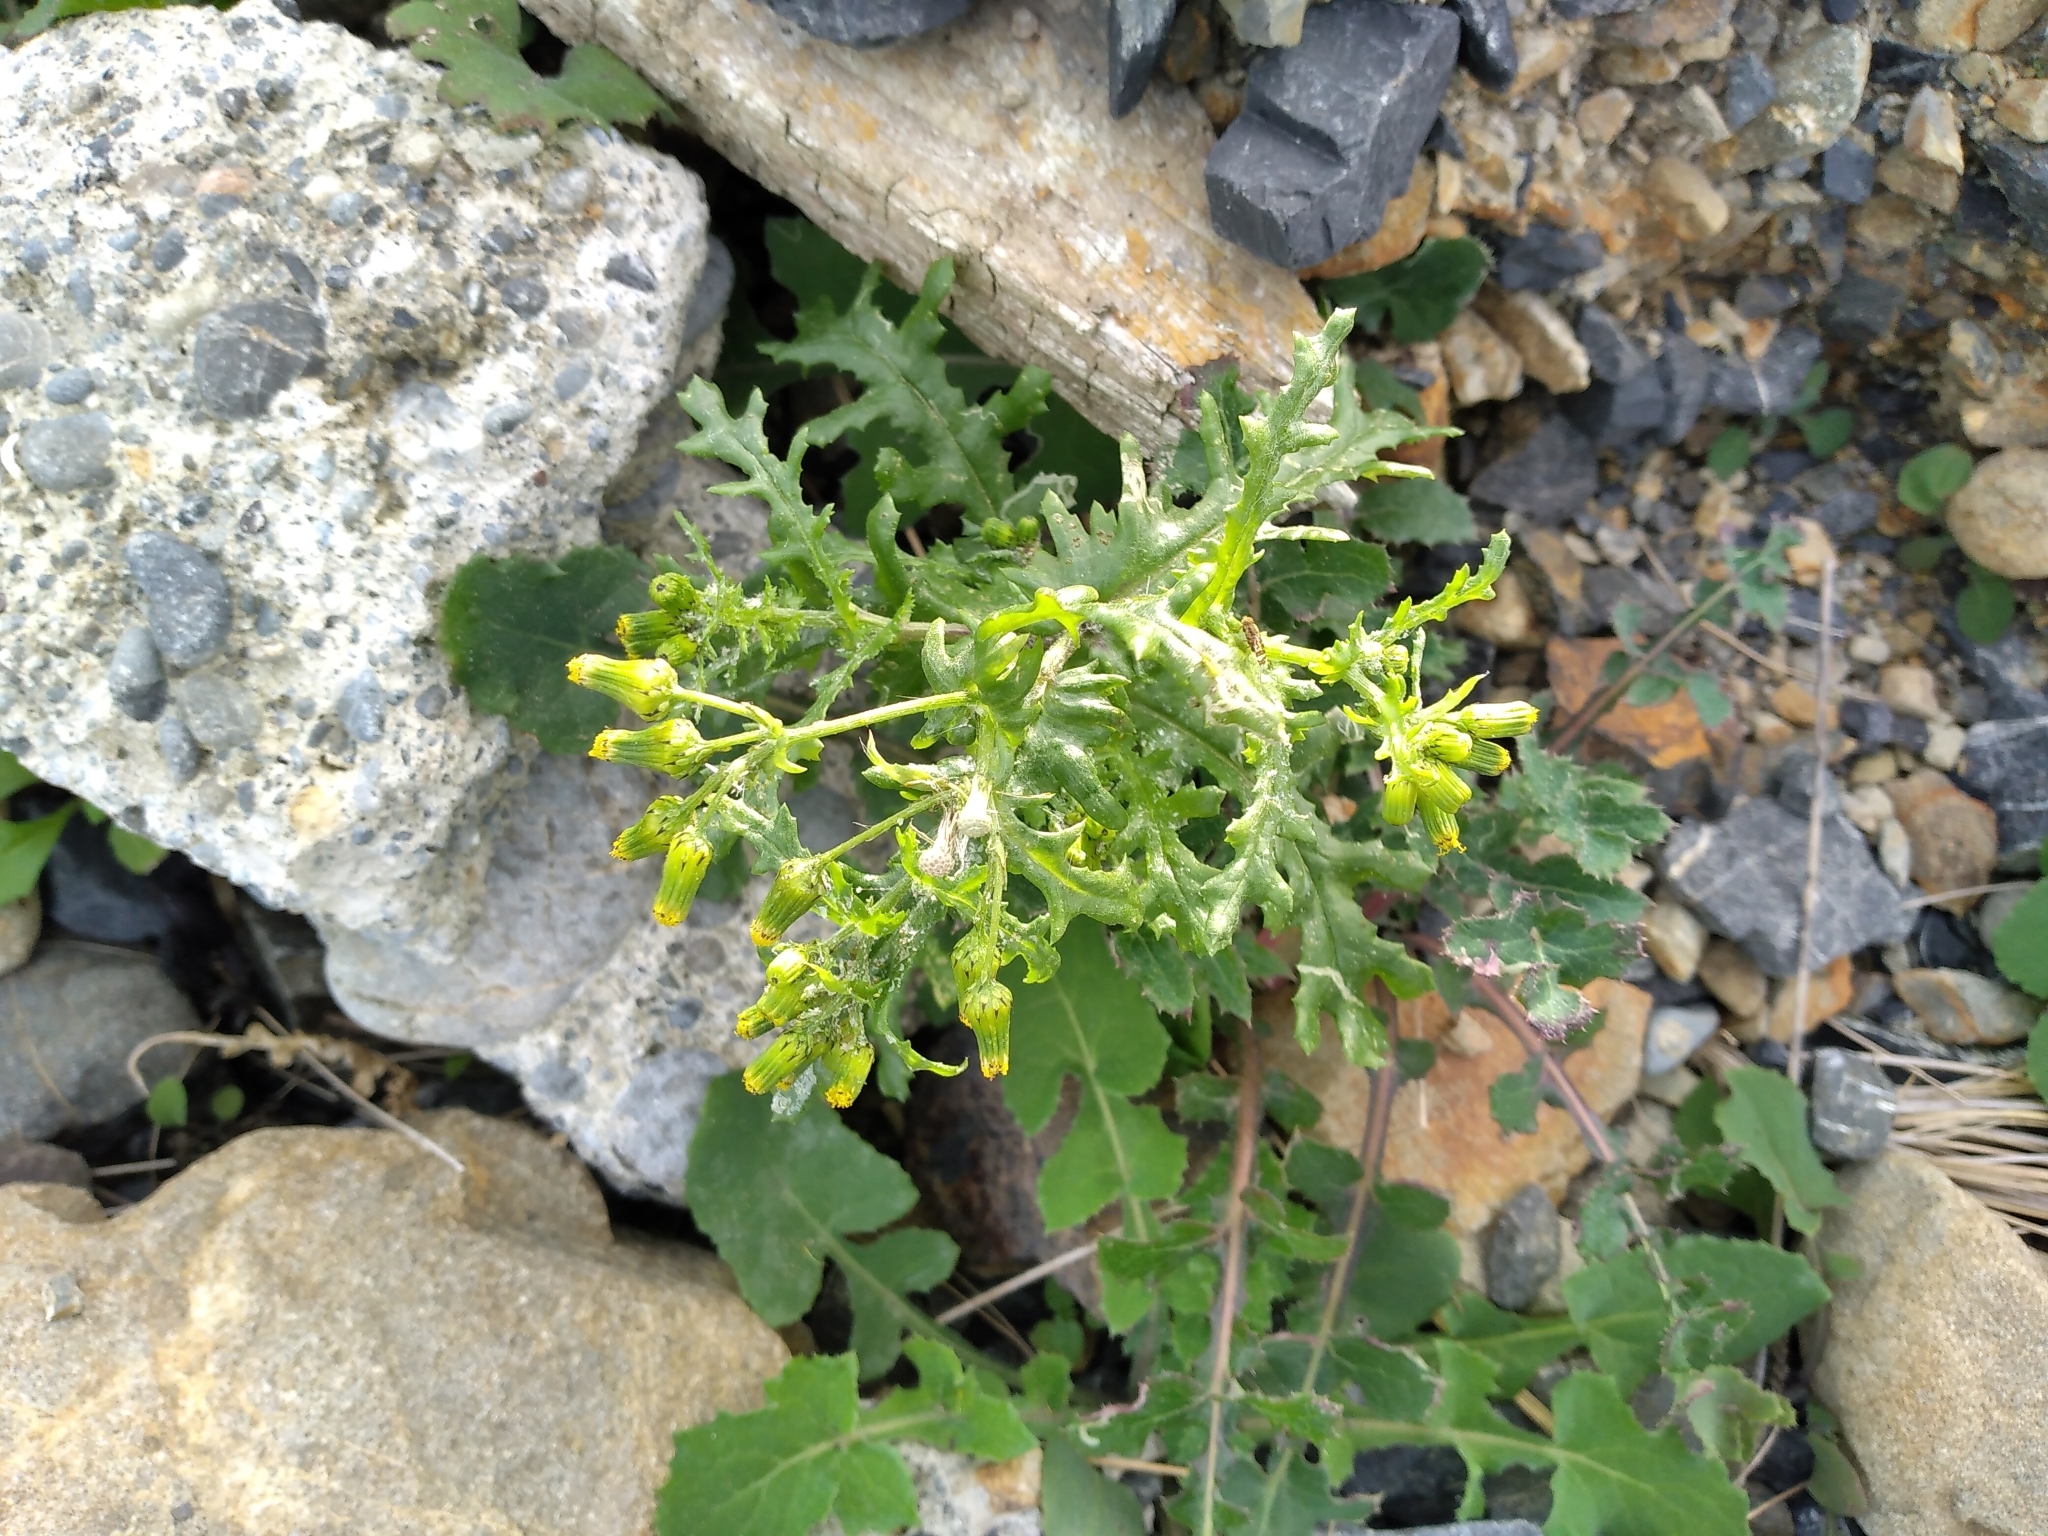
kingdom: Plantae
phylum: Tracheophyta
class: Magnoliopsida
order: Asterales
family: Asteraceae
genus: Senecio
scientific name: Senecio vulgaris
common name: Old-man-in-the-spring
